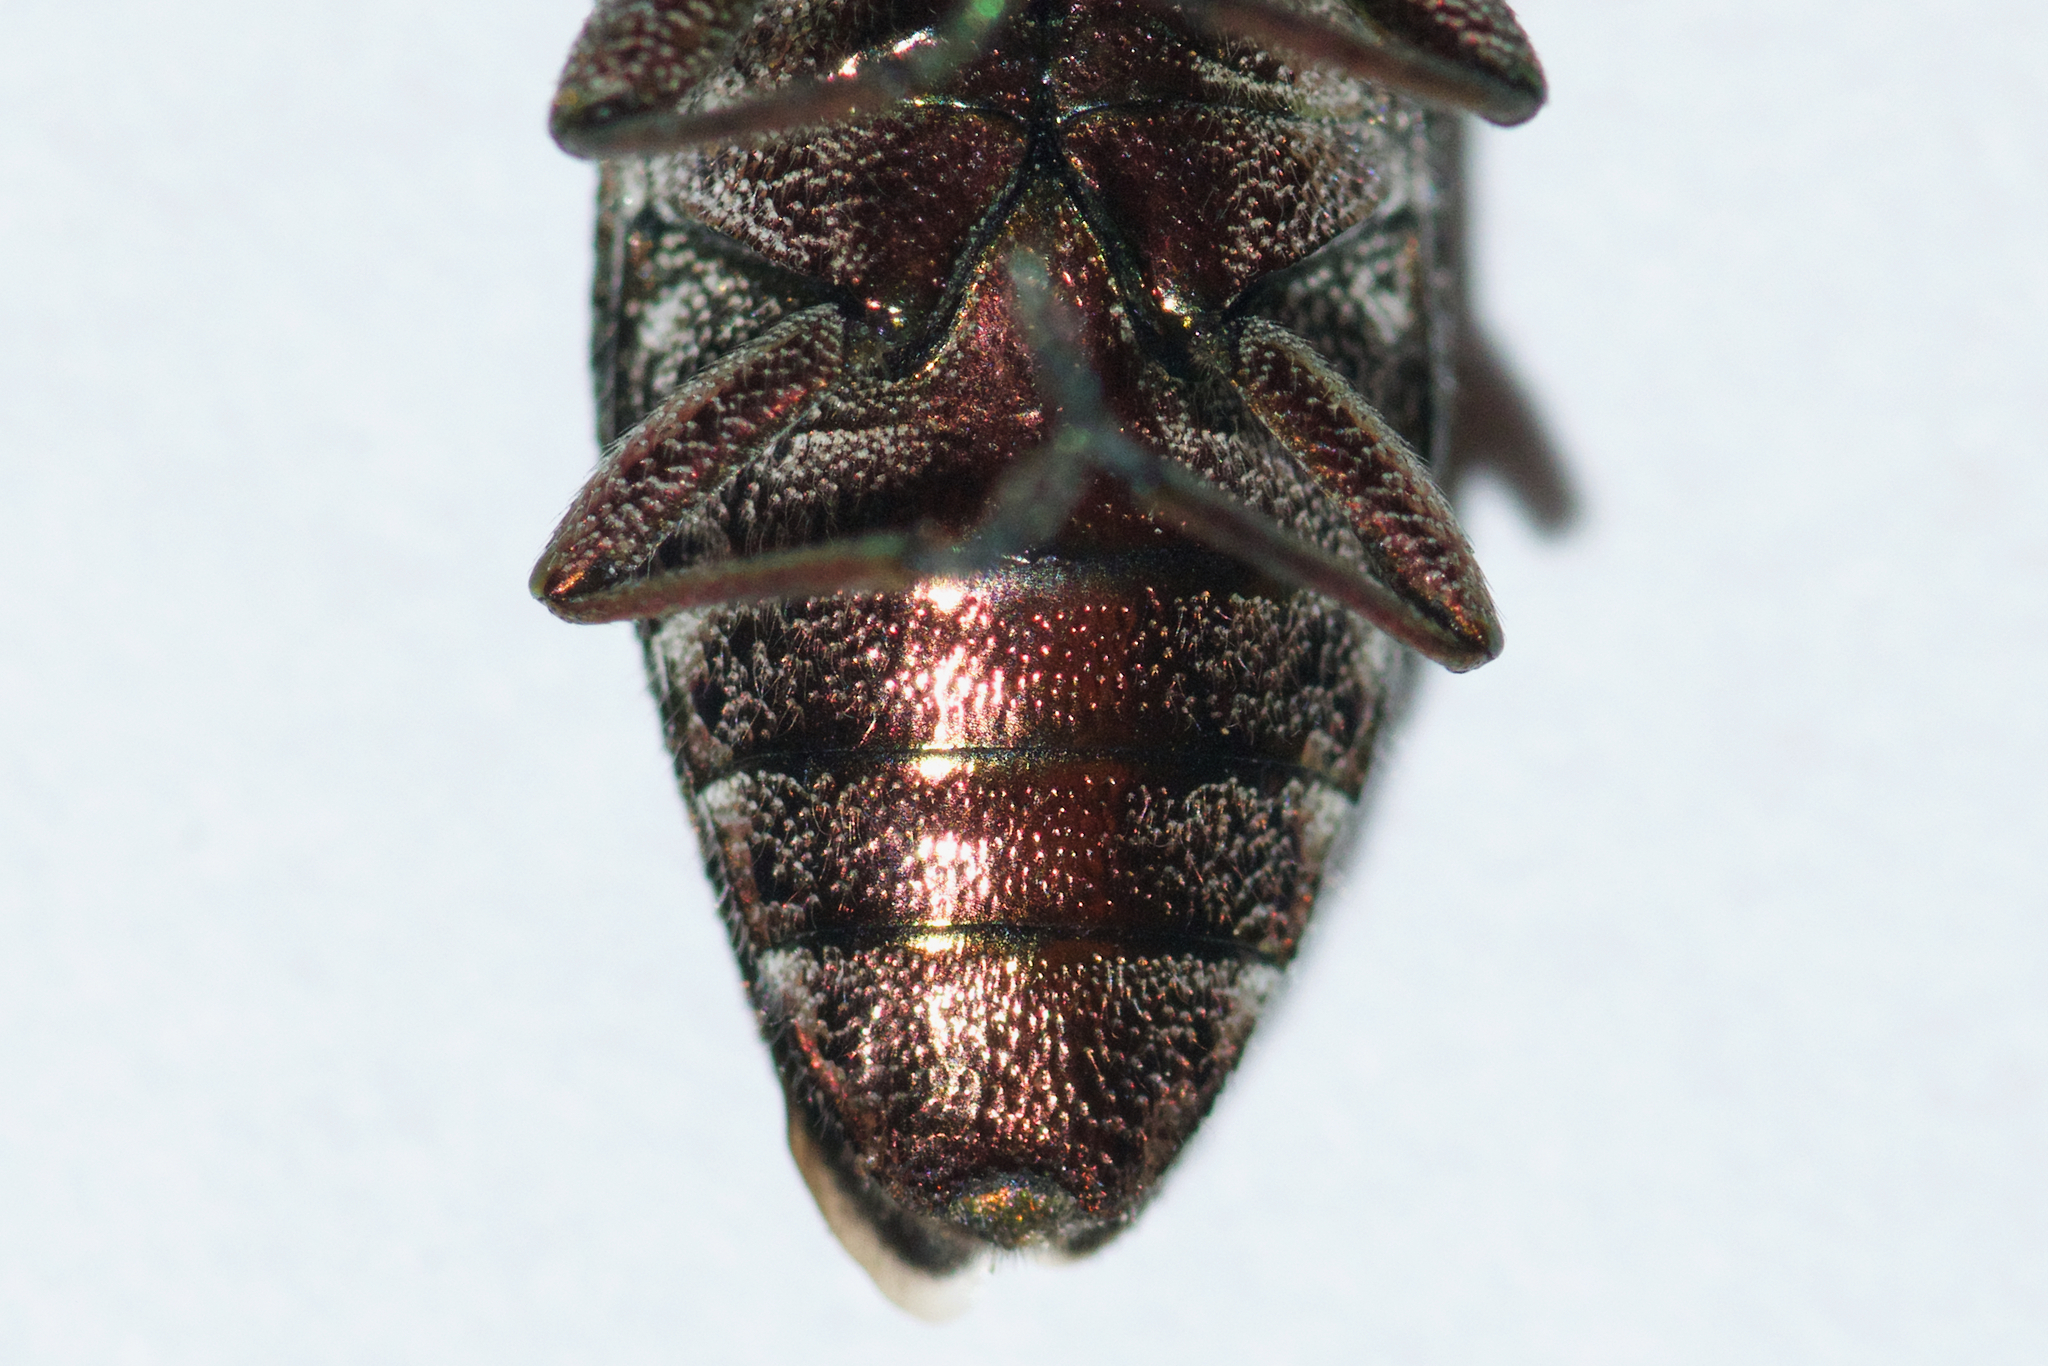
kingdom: Animalia
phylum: Arthropoda
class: Insecta
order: Coleoptera
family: Buprestidae
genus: Chrysobothris
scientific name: Chrysobothris femorata
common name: Flat-headed apple tree borer
